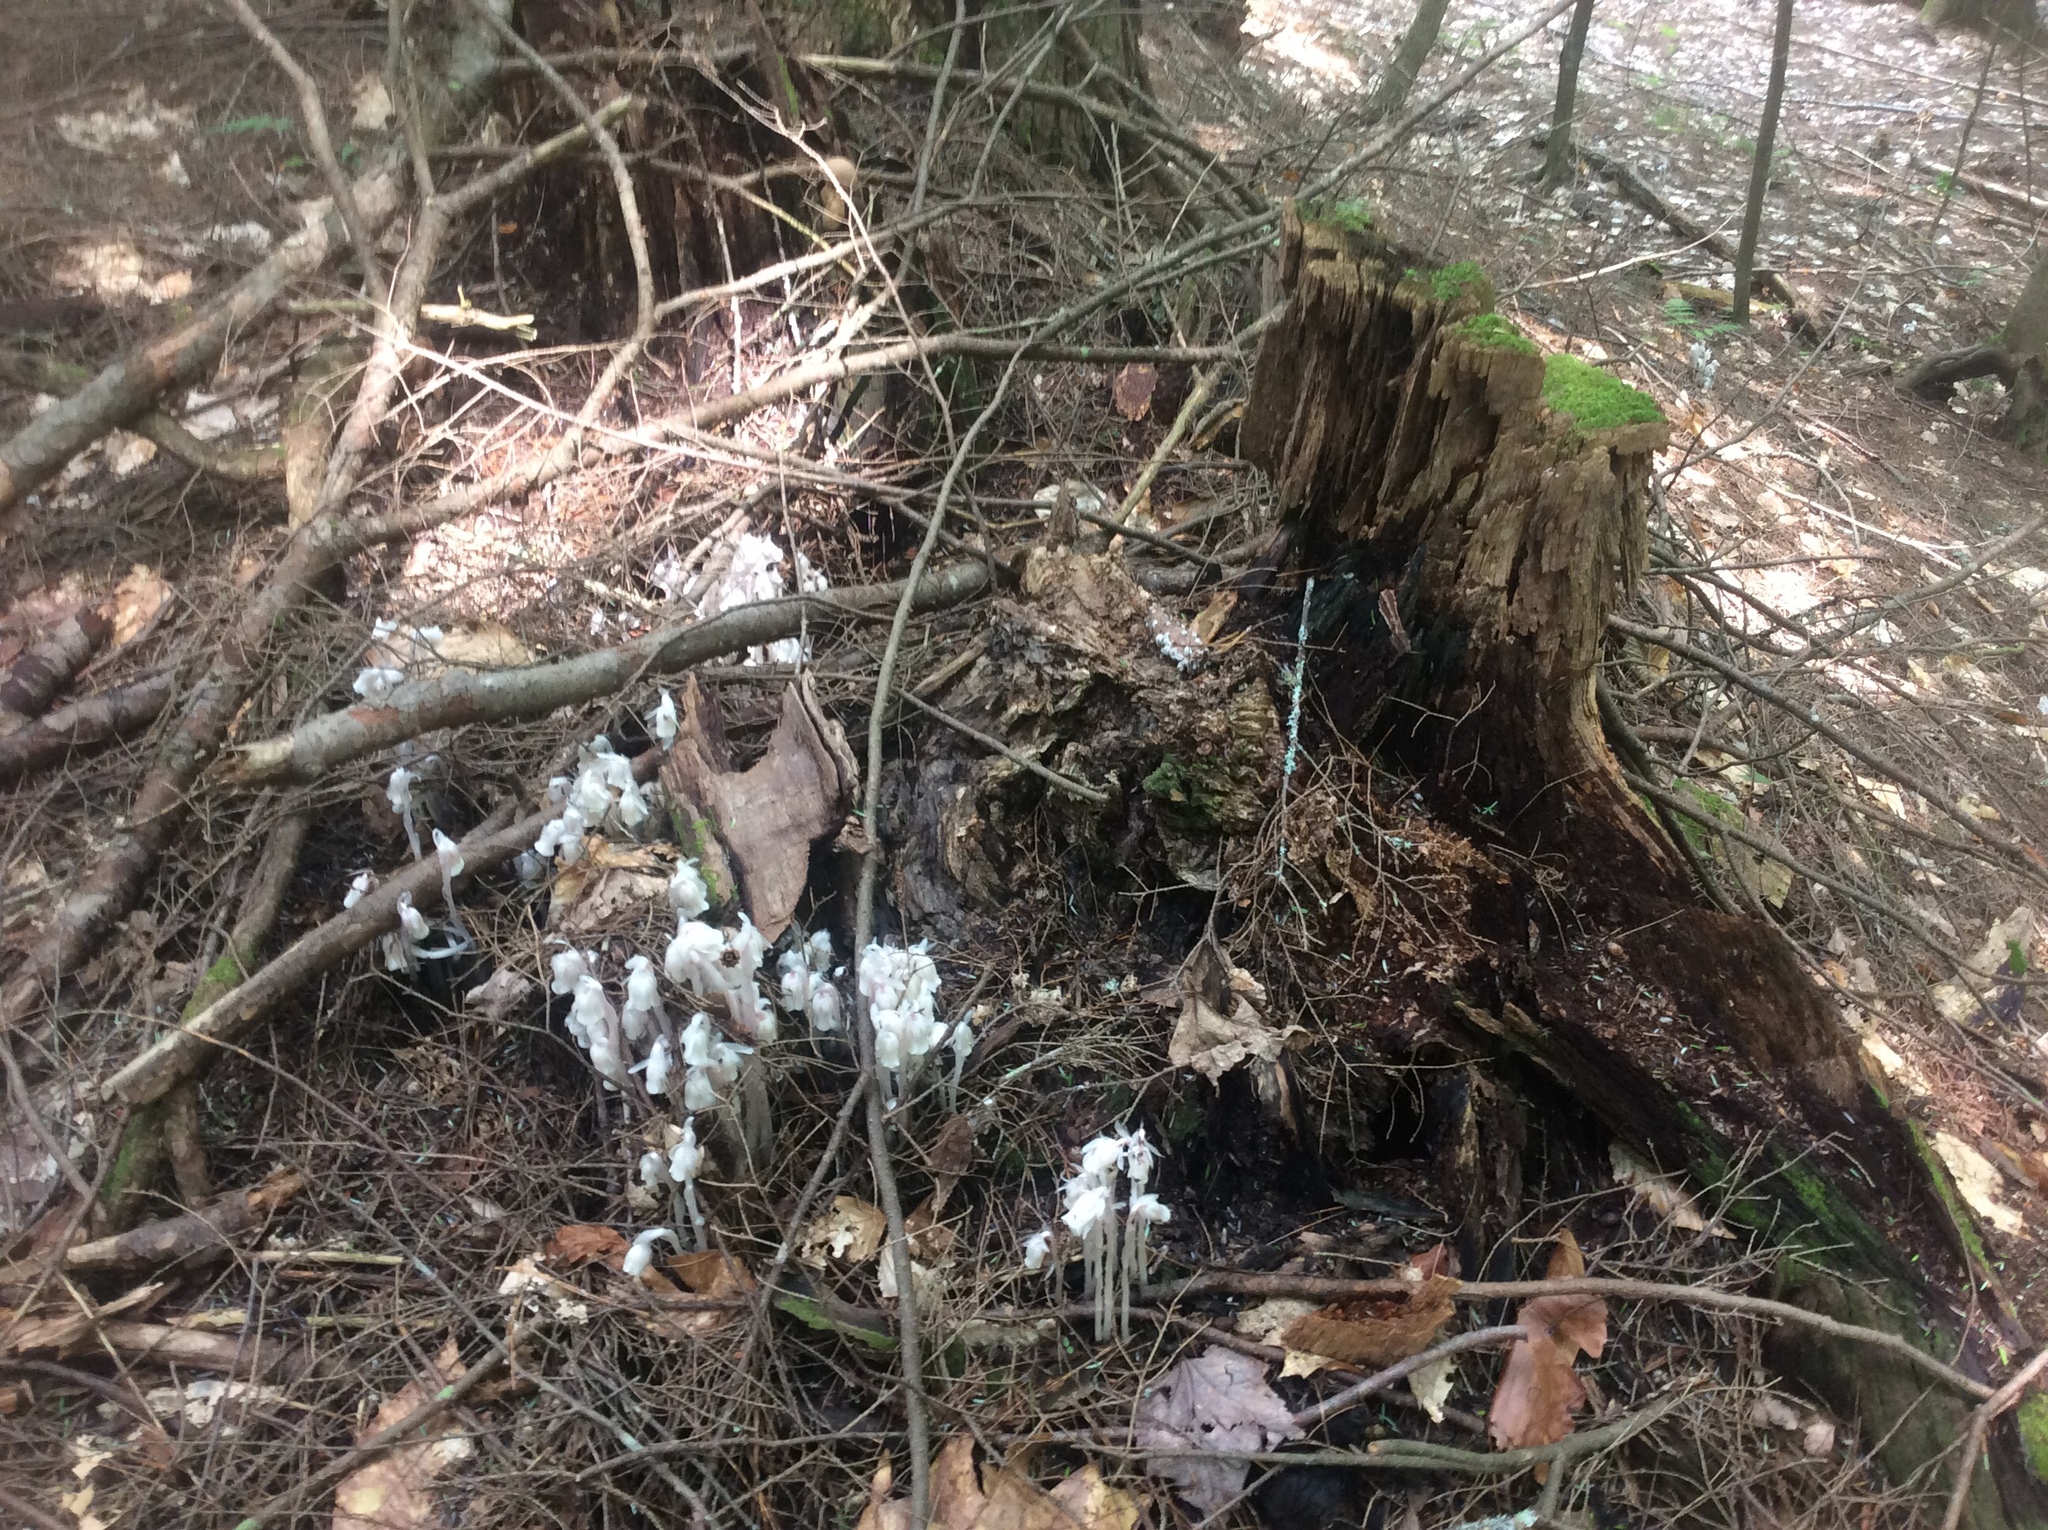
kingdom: Plantae
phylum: Tracheophyta
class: Magnoliopsida
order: Ericales
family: Ericaceae
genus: Monotropa
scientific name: Monotropa uniflora
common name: Convulsion root
